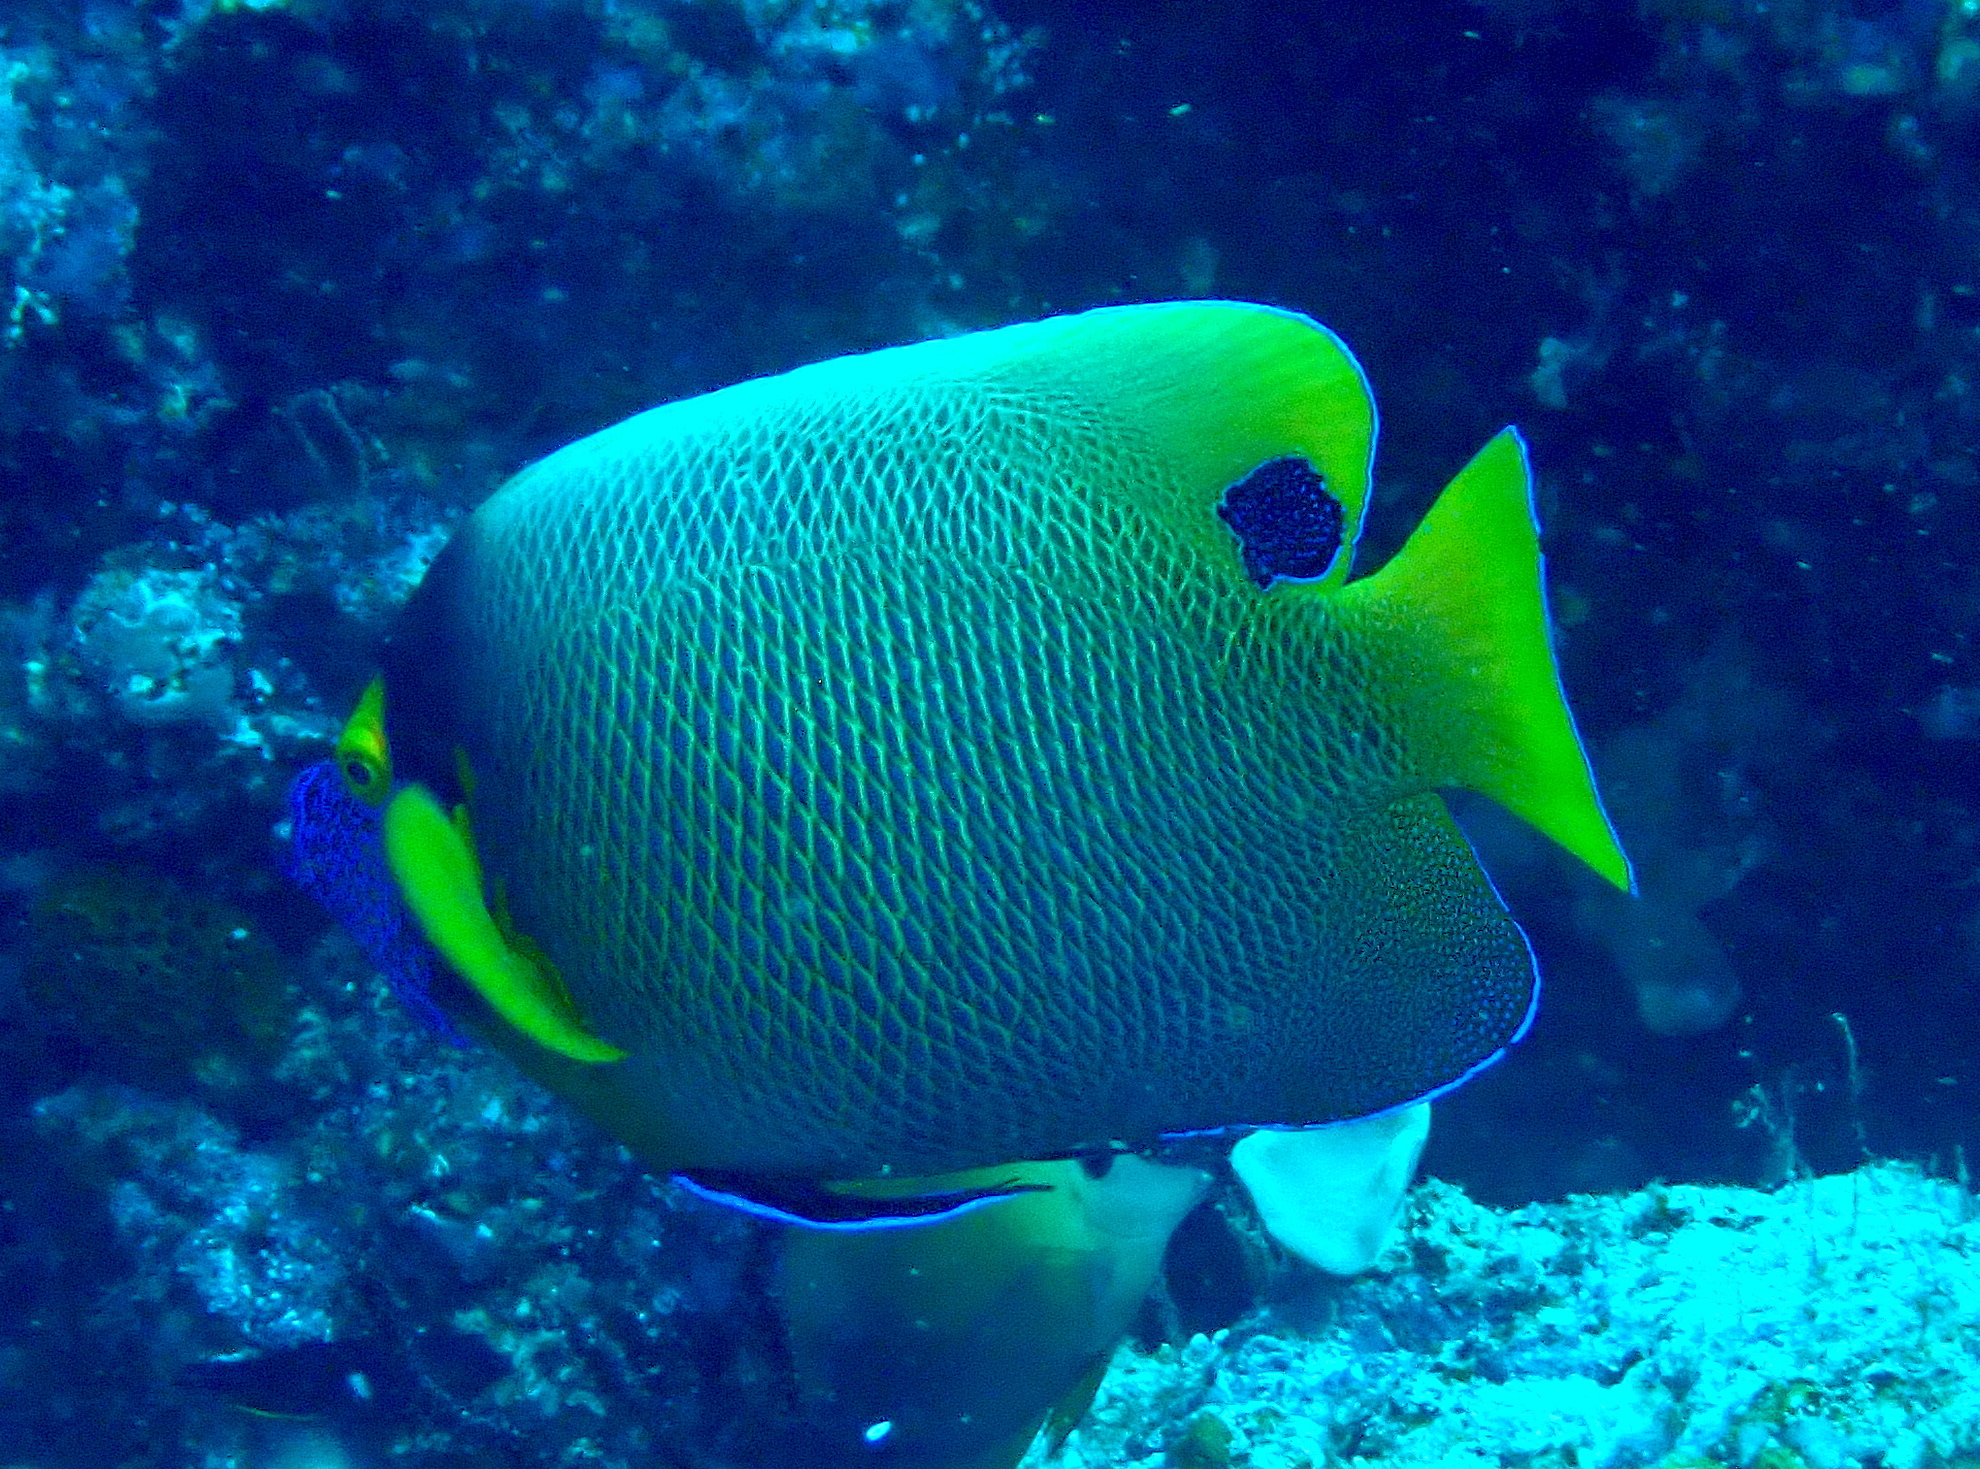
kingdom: Animalia
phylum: Chordata
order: Perciformes
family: Pomacanthidae
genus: Pomacanthus
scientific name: Pomacanthus xanthometopon
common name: Yellow-faced angelfish
